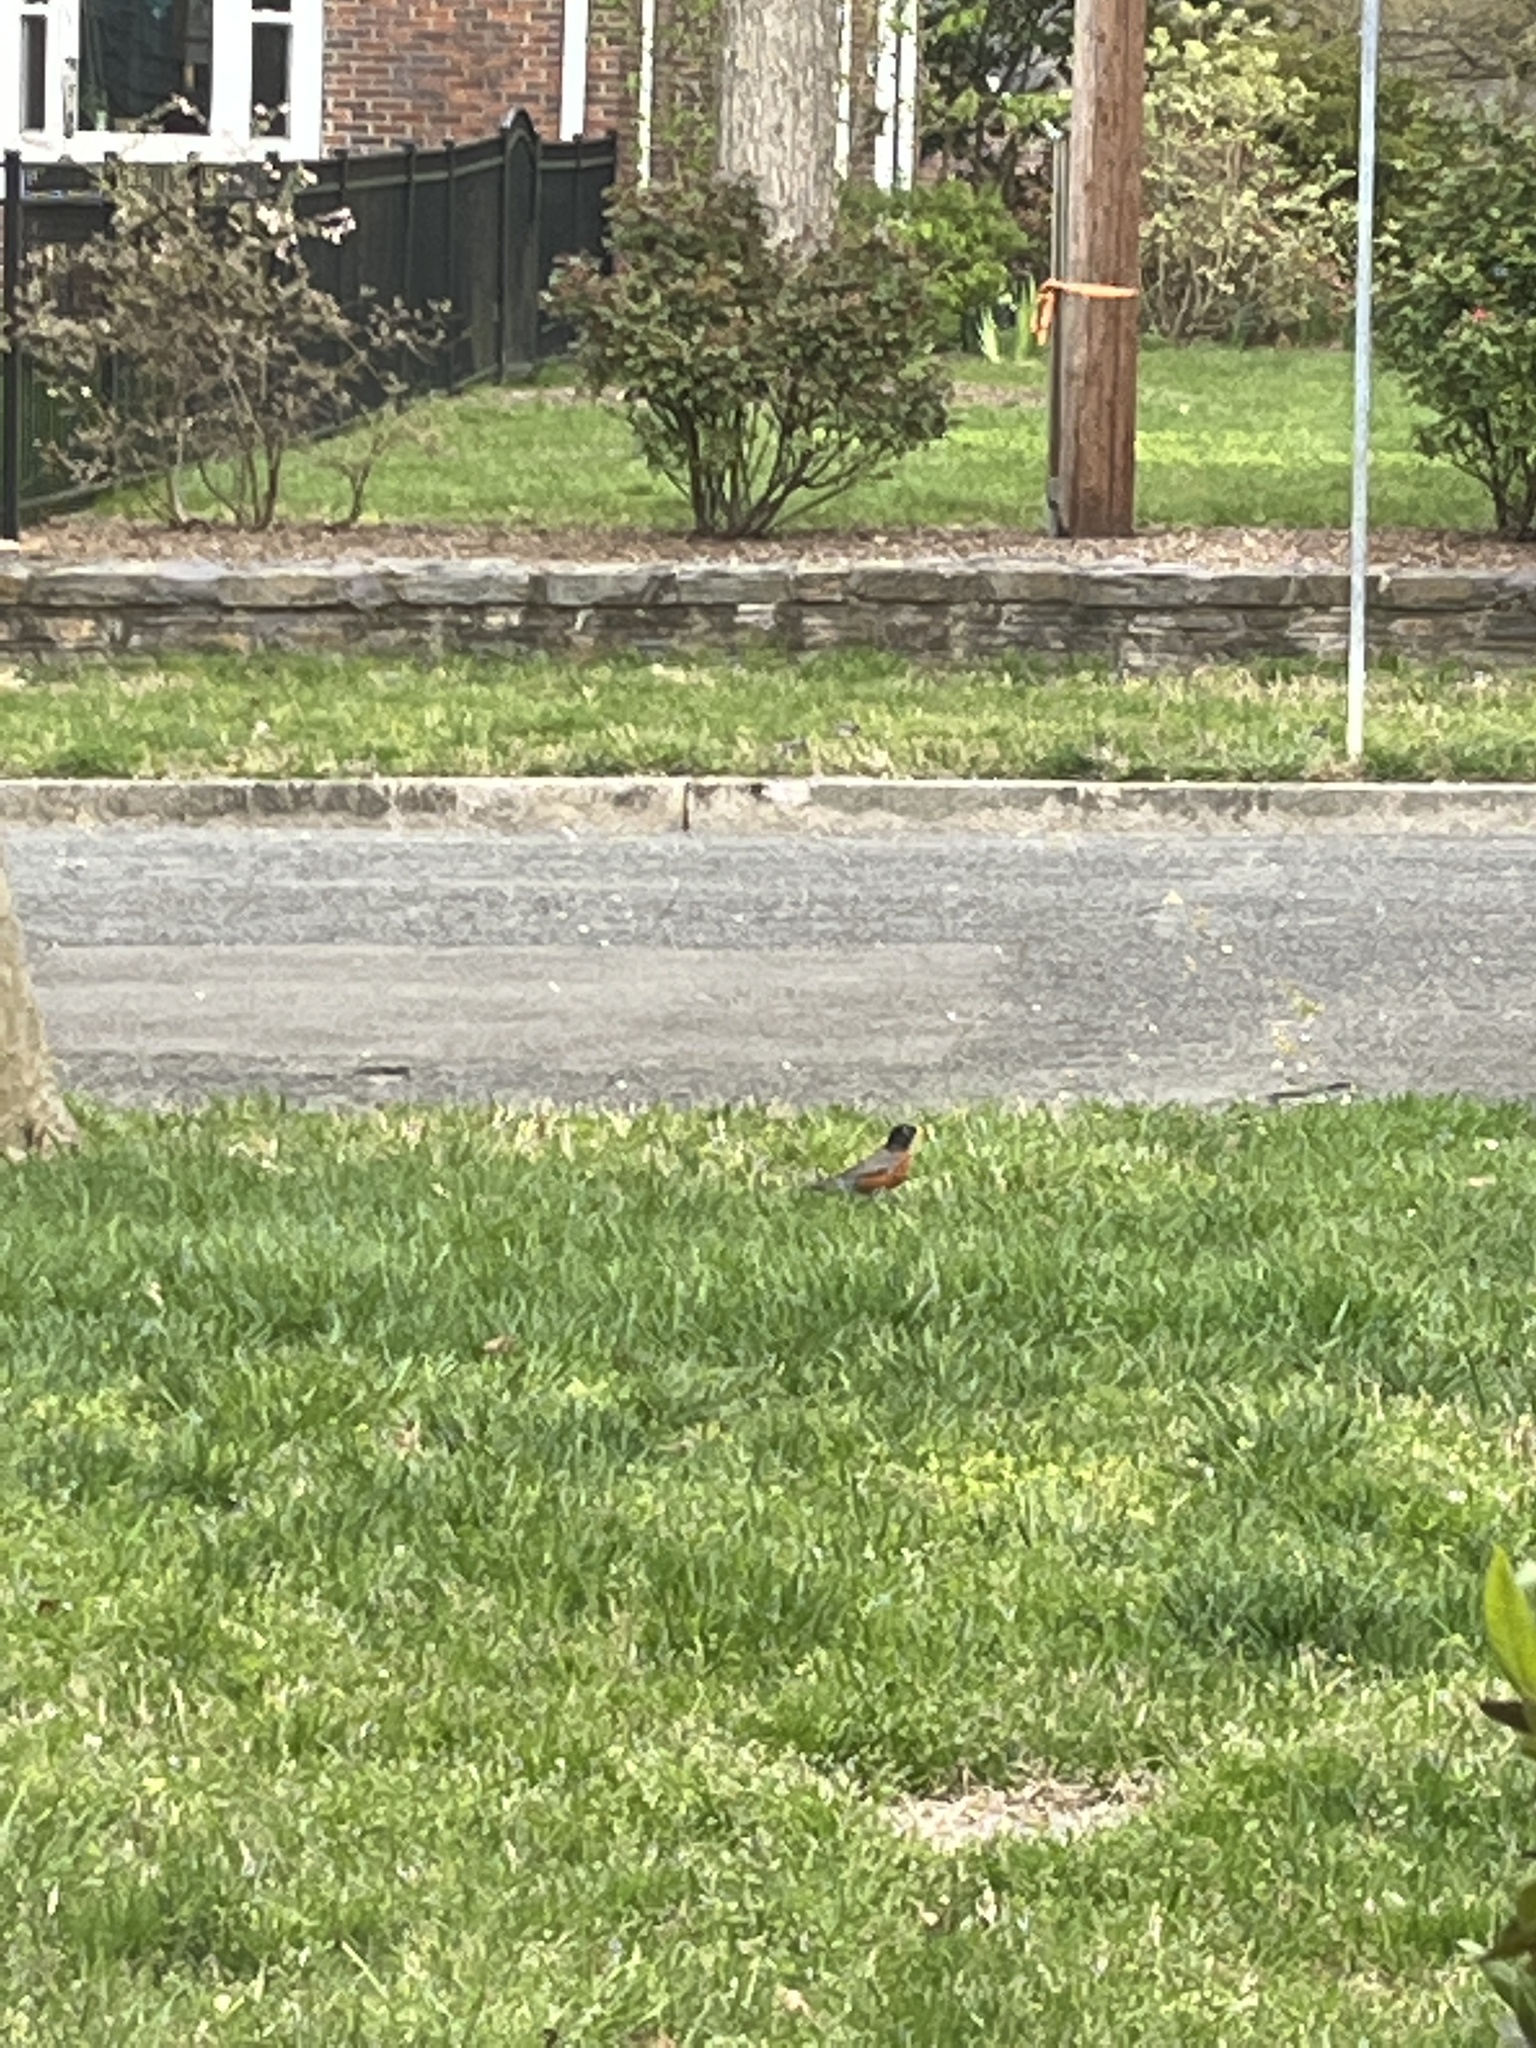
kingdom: Animalia
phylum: Chordata
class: Aves
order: Passeriformes
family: Turdidae
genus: Turdus
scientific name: Turdus migratorius
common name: American robin
